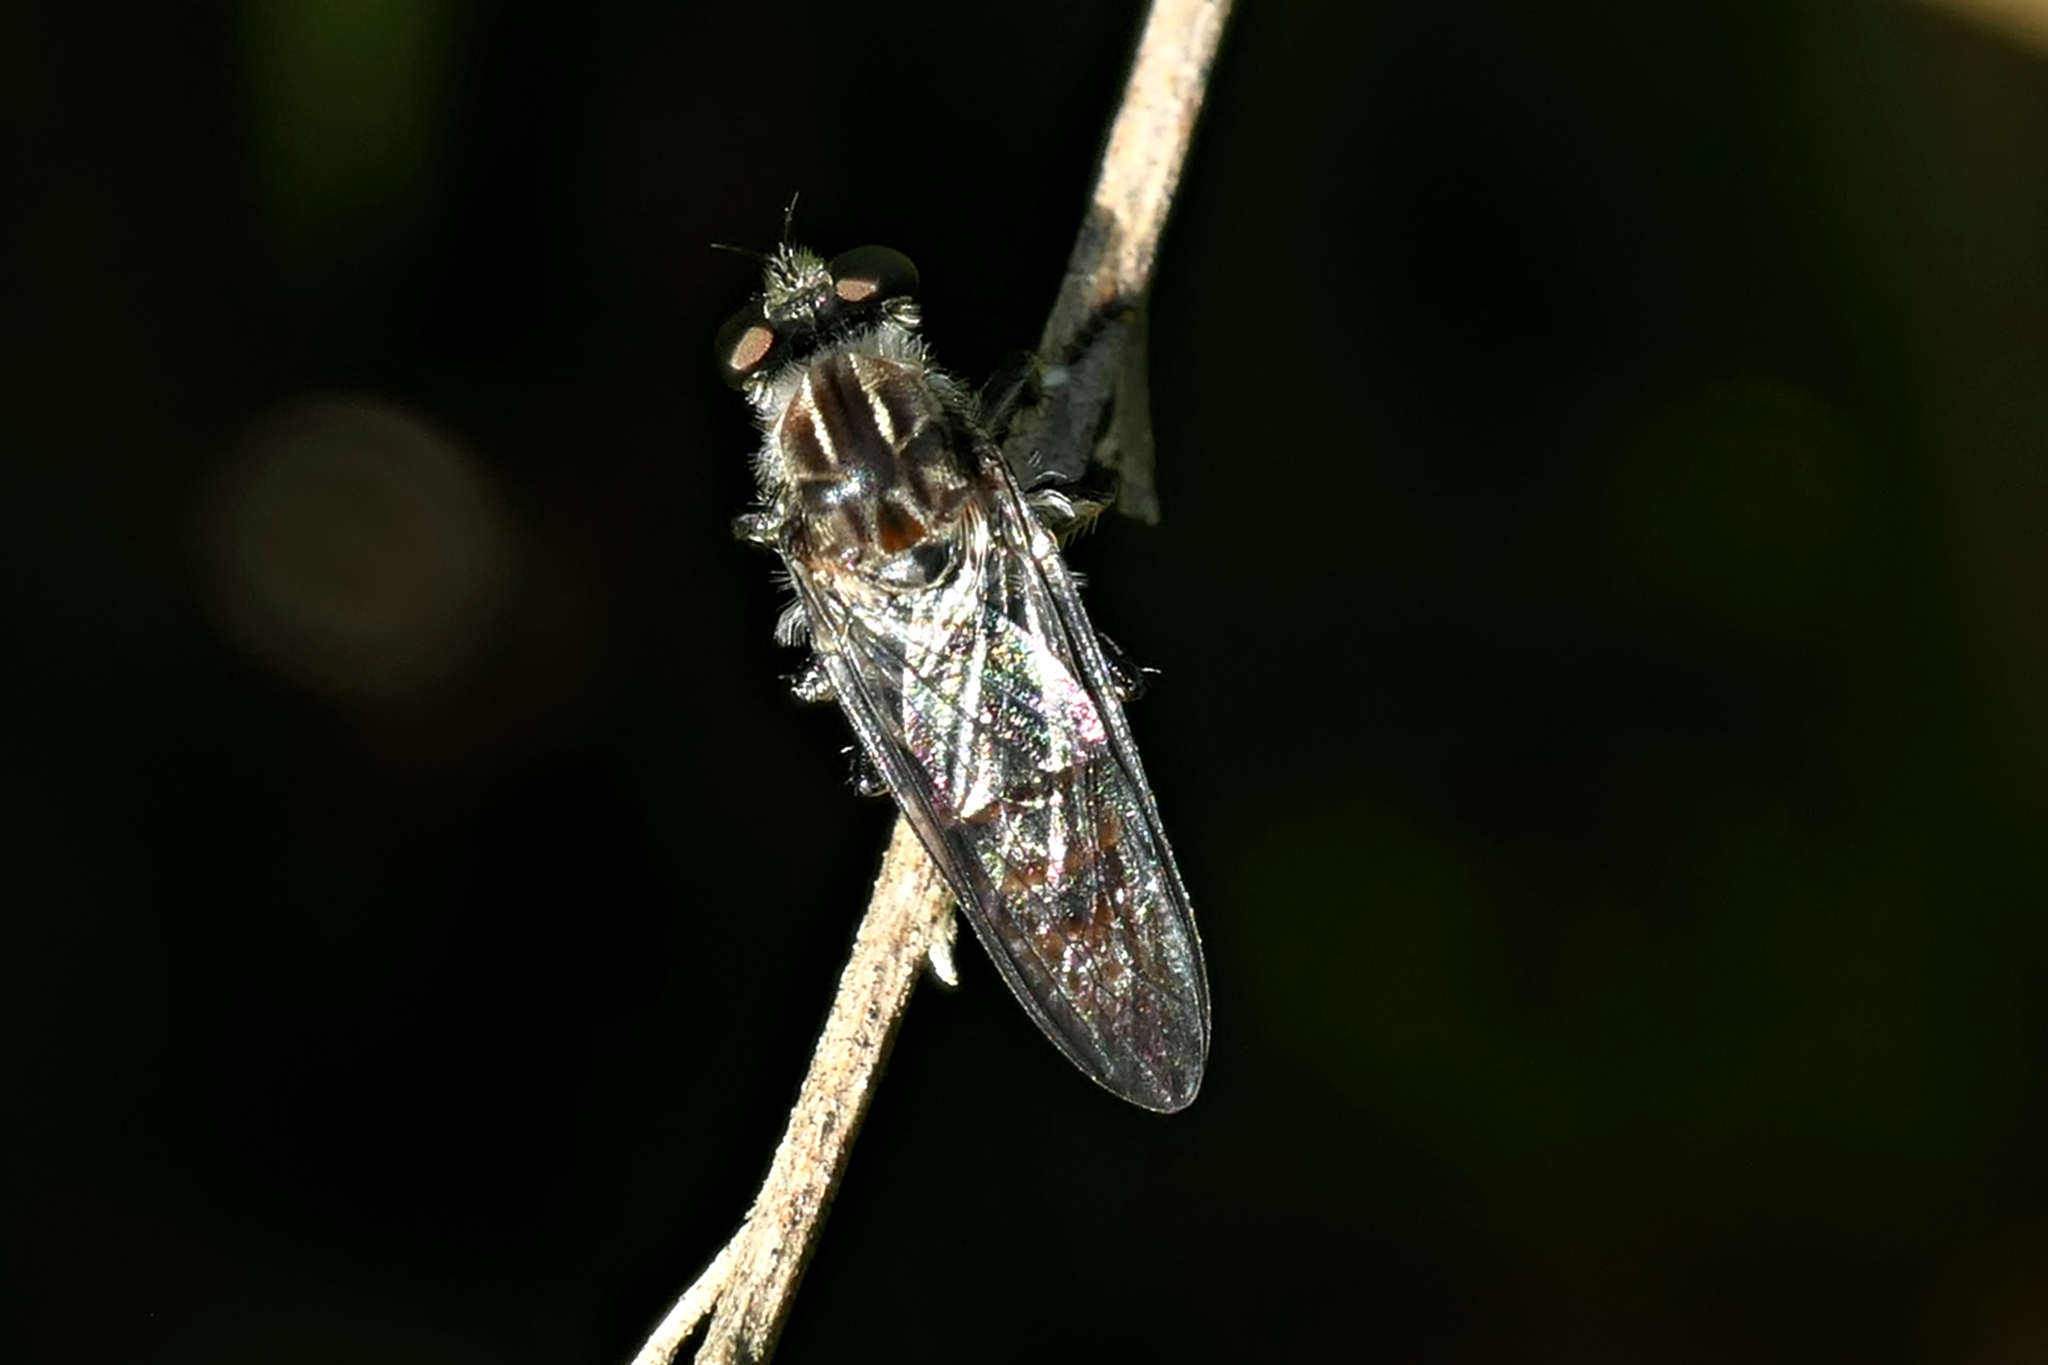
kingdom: Animalia
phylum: Arthropoda
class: Insecta
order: Diptera
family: Asilidae
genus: Heteropogon
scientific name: Heteropogon macerinus
